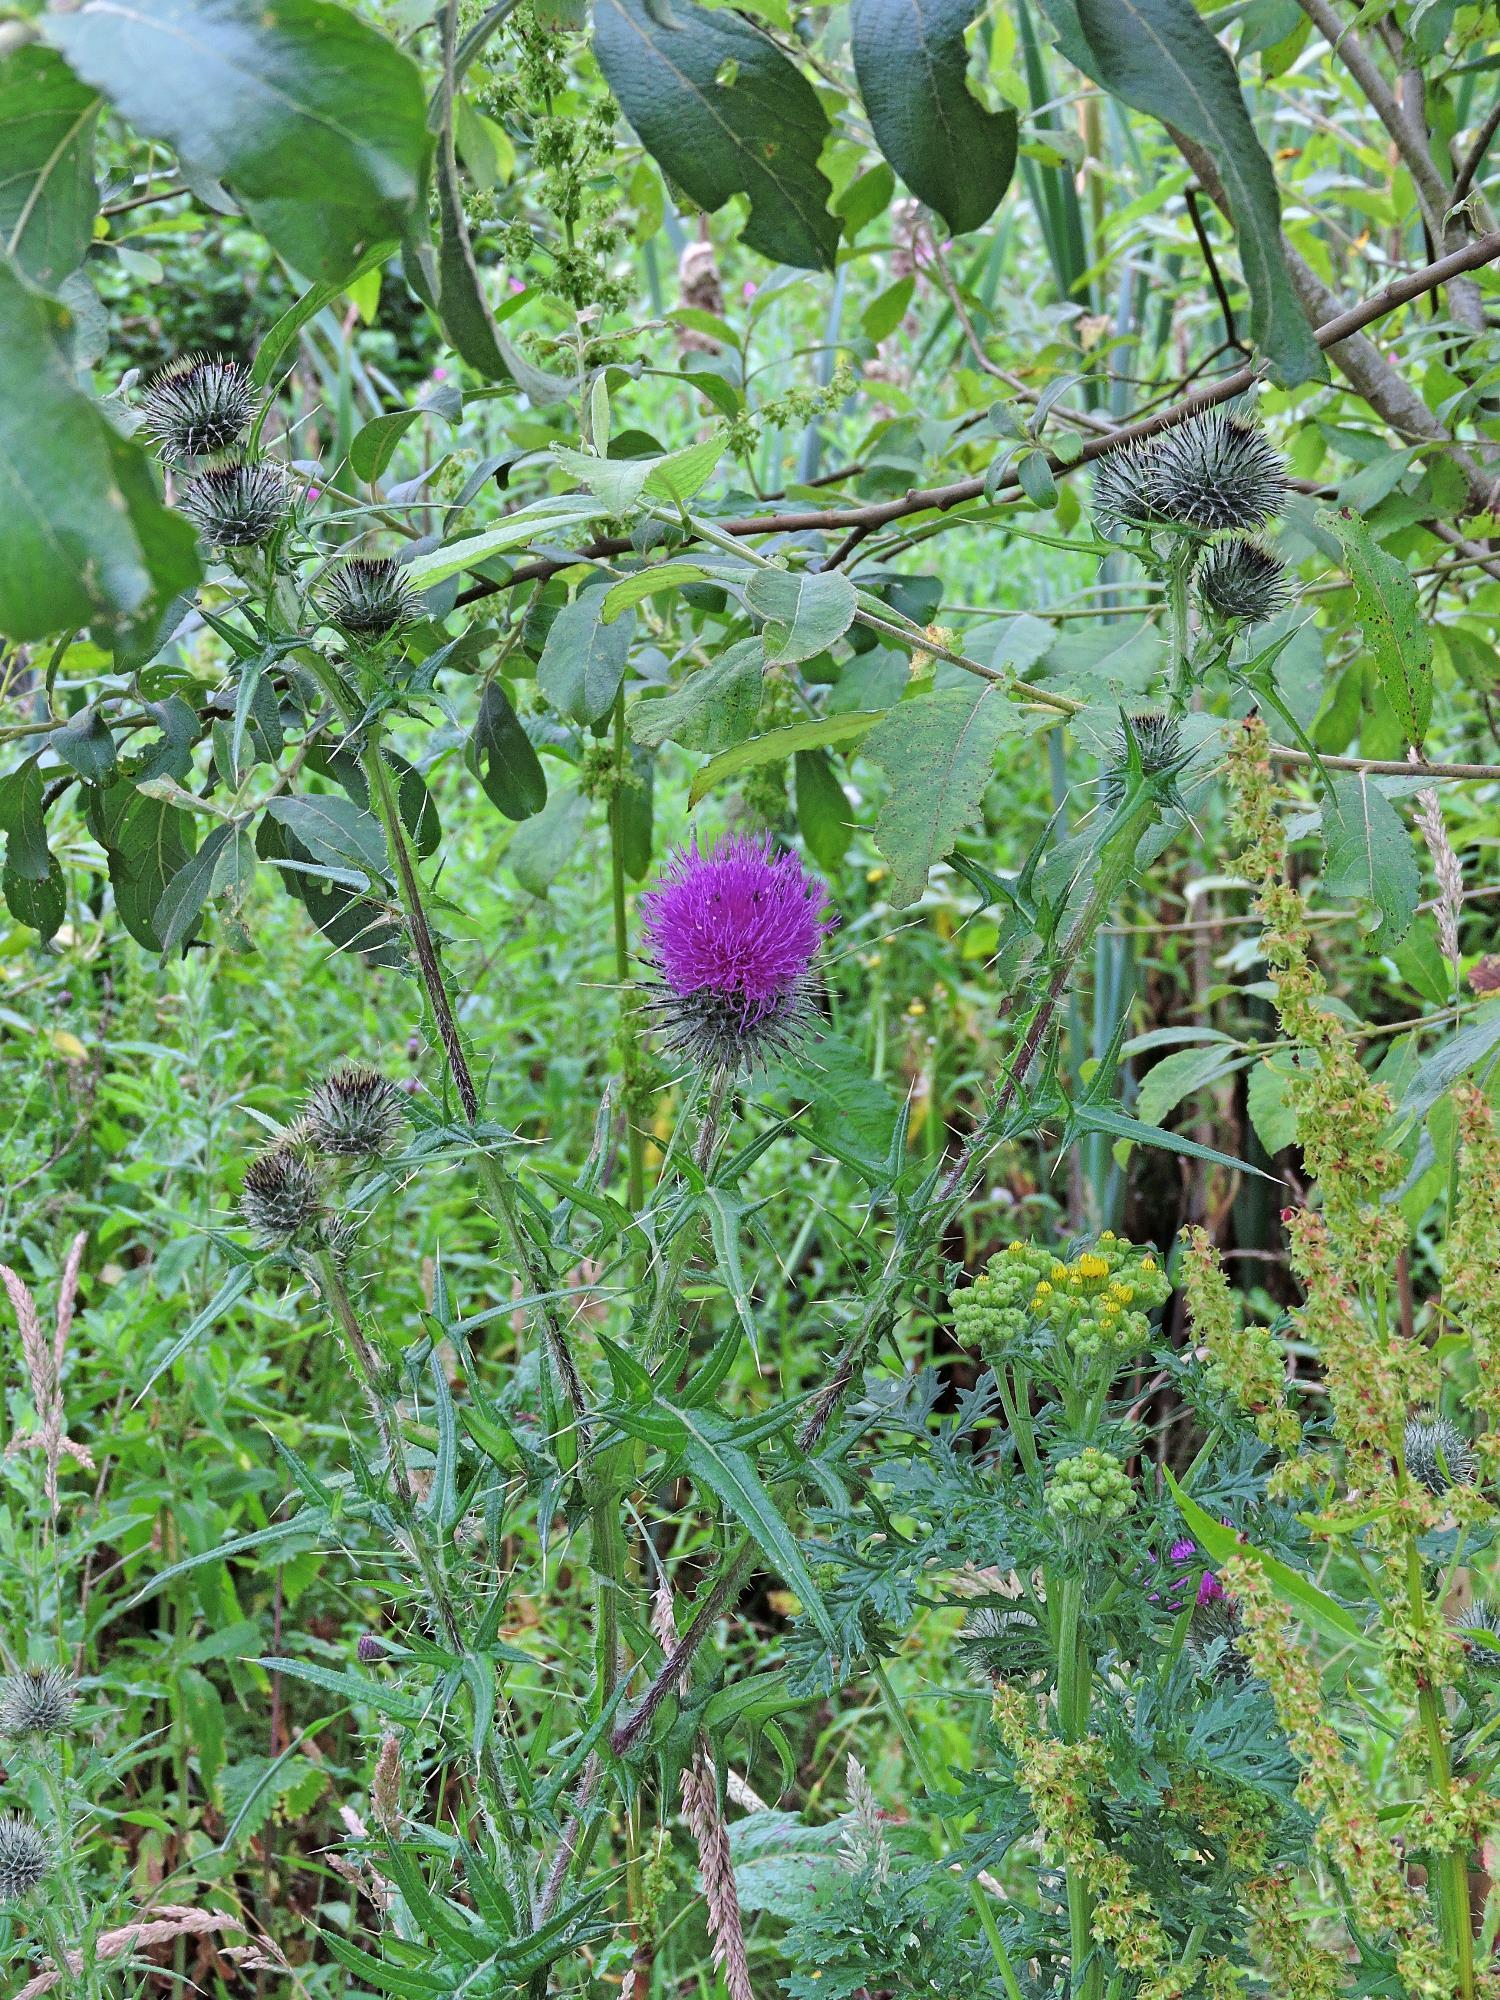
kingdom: Plantae
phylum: Tracheophyta
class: Magnoliopsida
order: Asterales
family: Asteraceae
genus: Cirsium
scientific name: Cirsium vulgare
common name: Bull thistle
